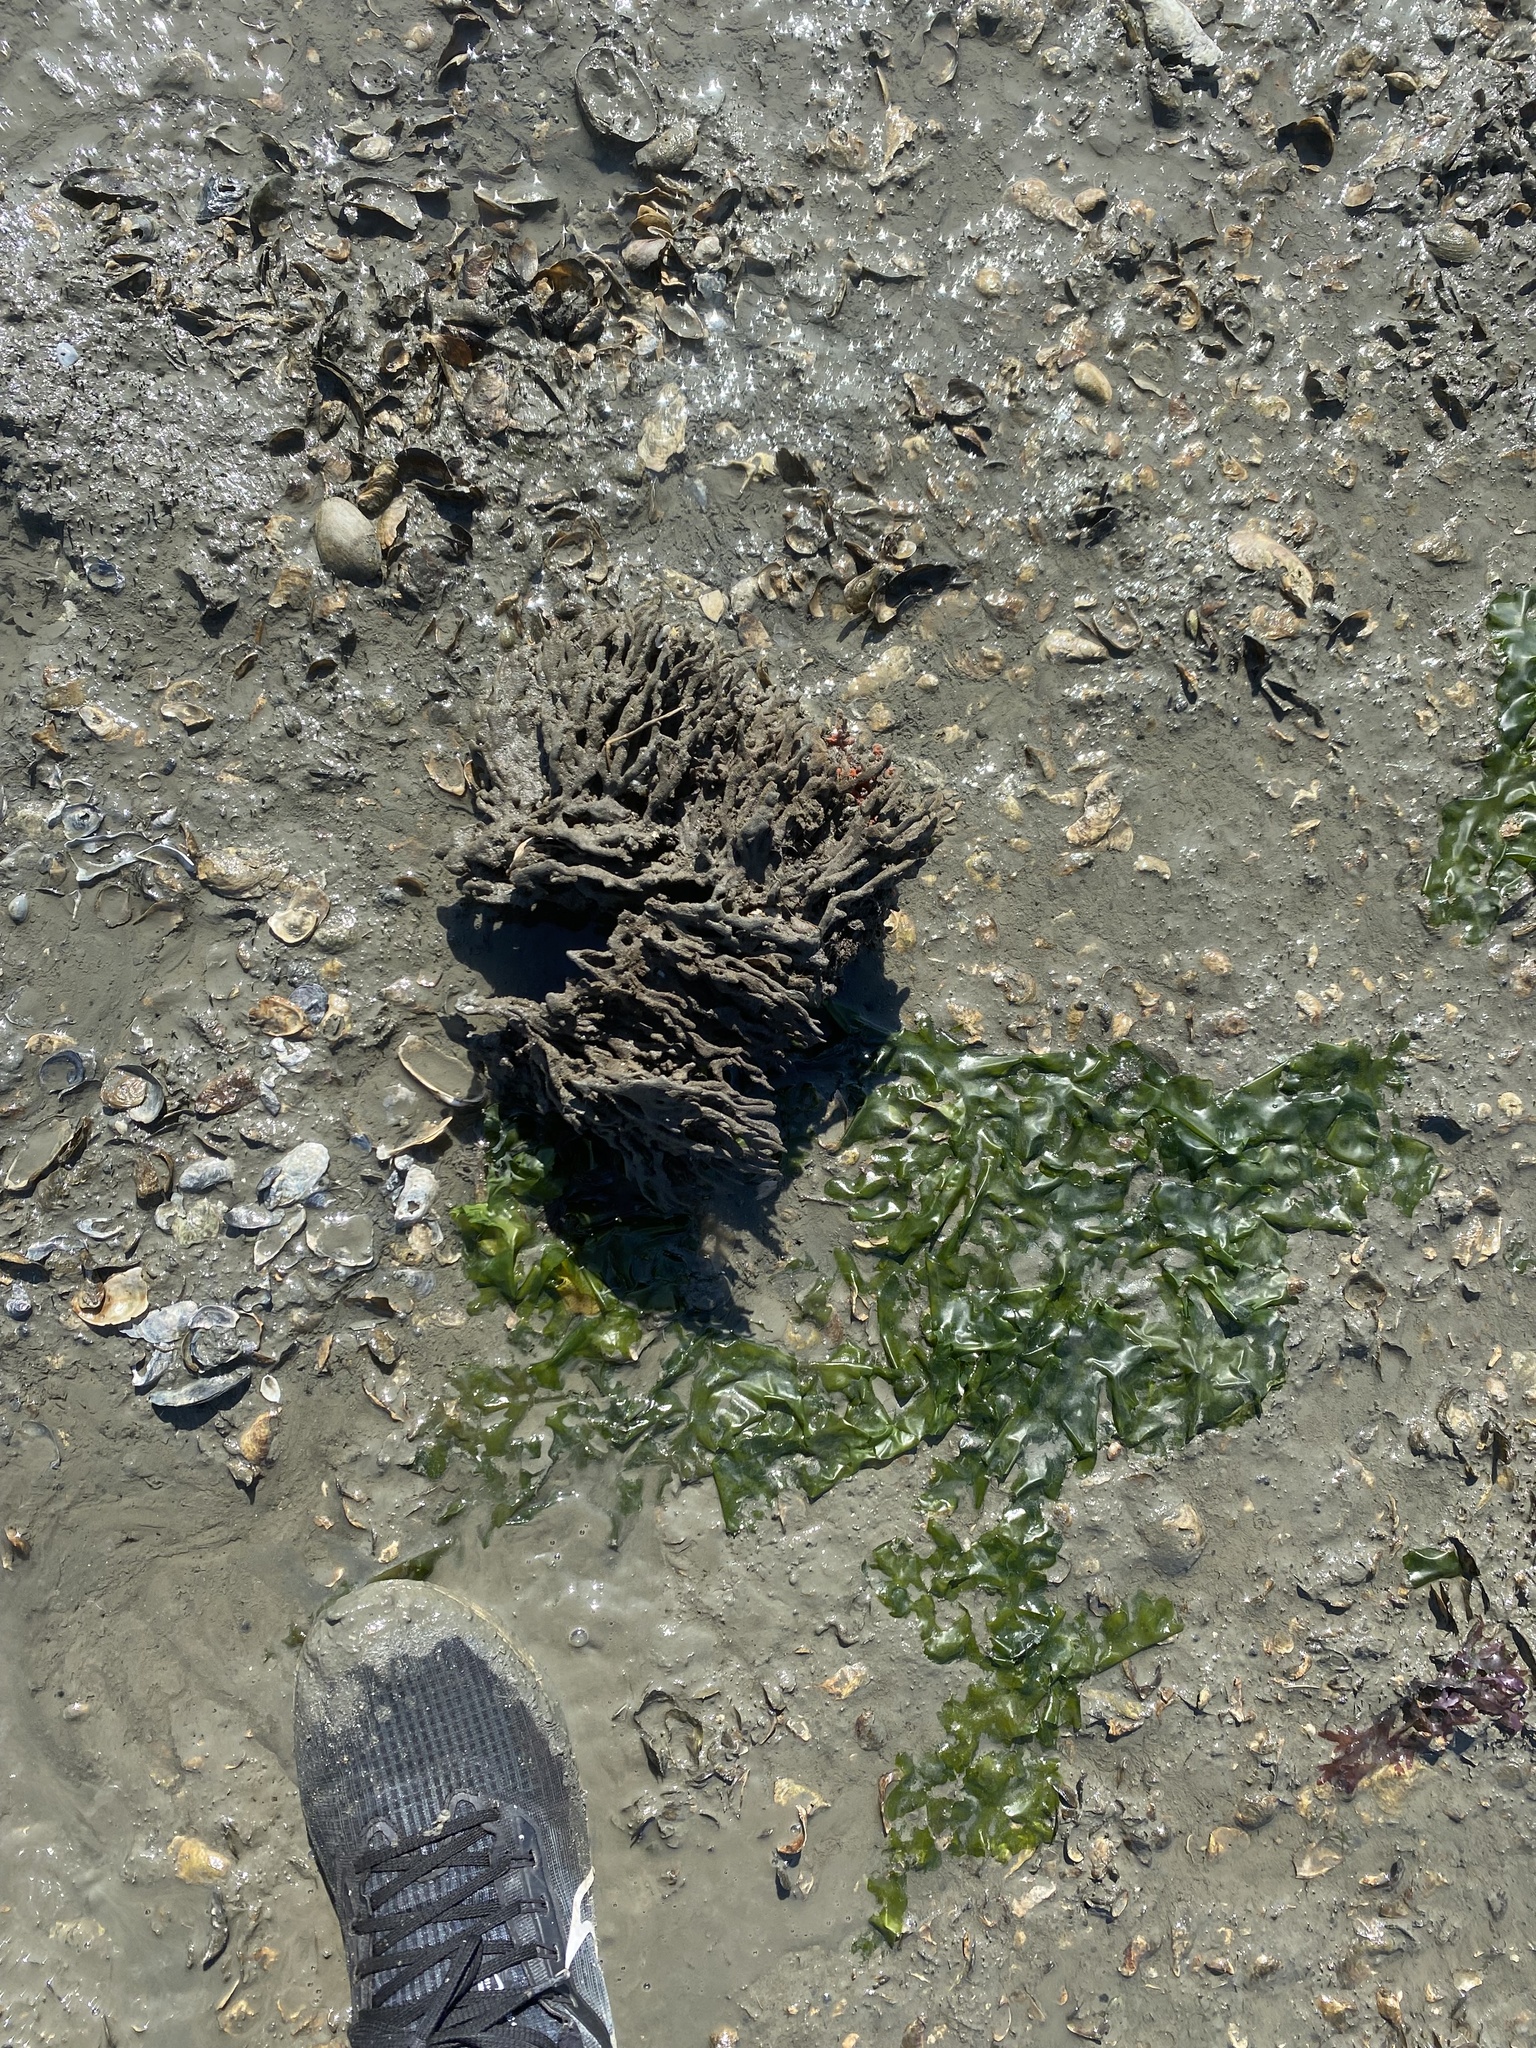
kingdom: Animalia
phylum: Porifera
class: Demospongiae
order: Poecilosclerida
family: Microcionidae
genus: Clathria
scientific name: Clathria prolifera
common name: Red beard sponge
